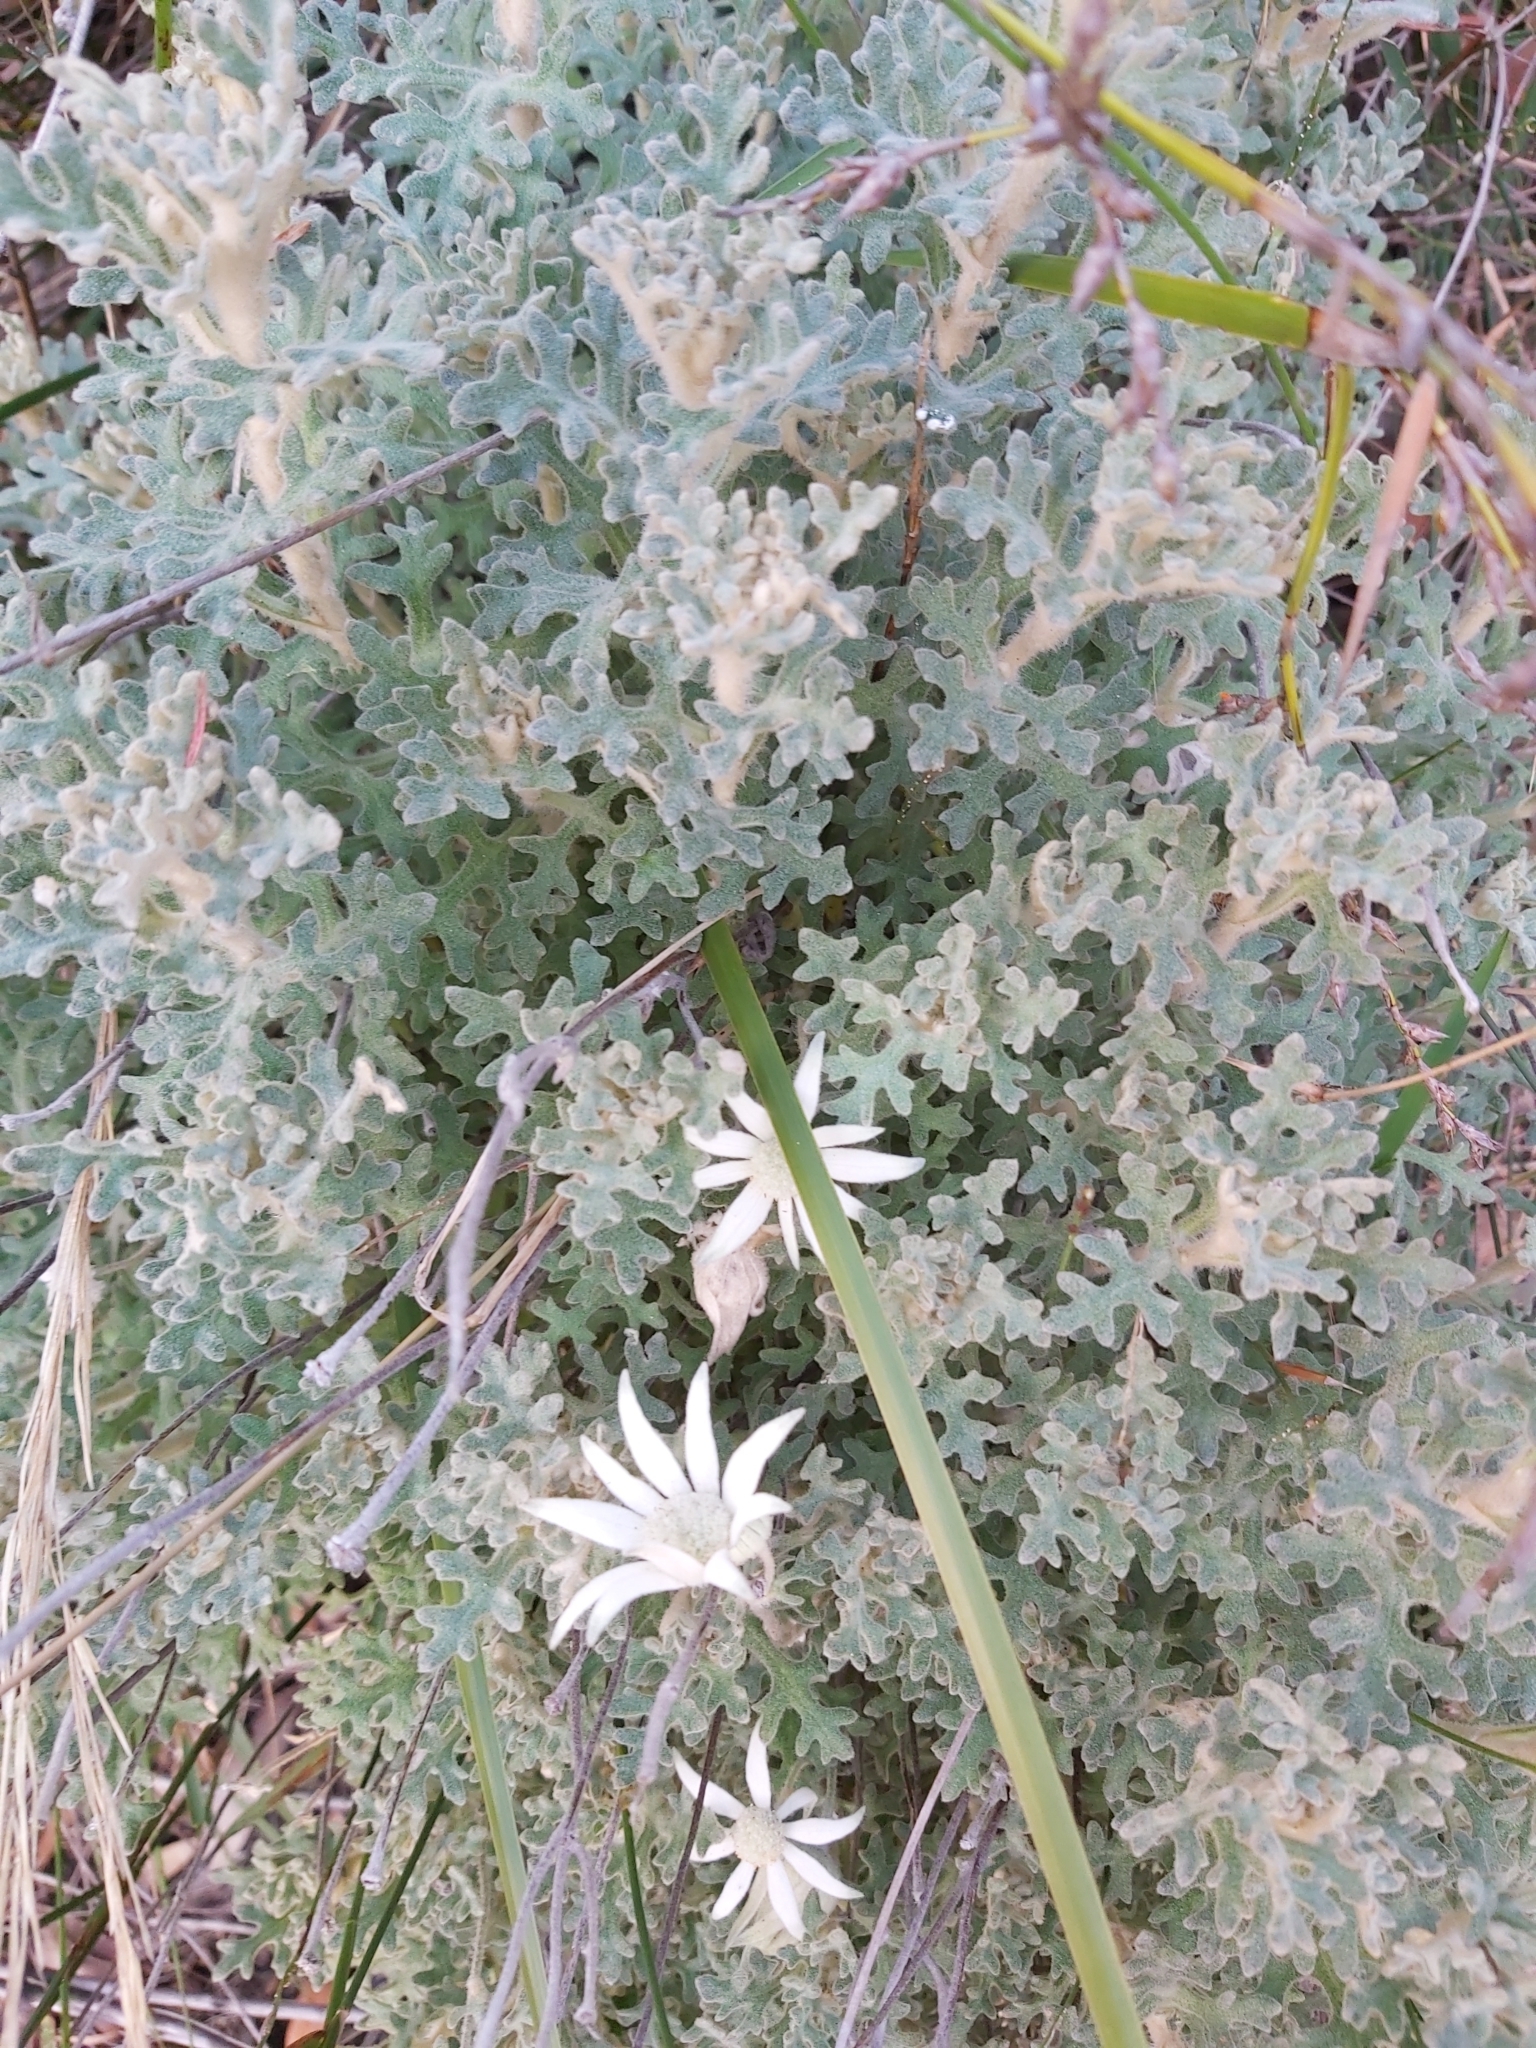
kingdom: Plantae
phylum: Tracheophyta
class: Magnoliopsida
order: Apiales
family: Apiaceae
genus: Actinotus
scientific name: Actinotus helianthi
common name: Flannel-flower
